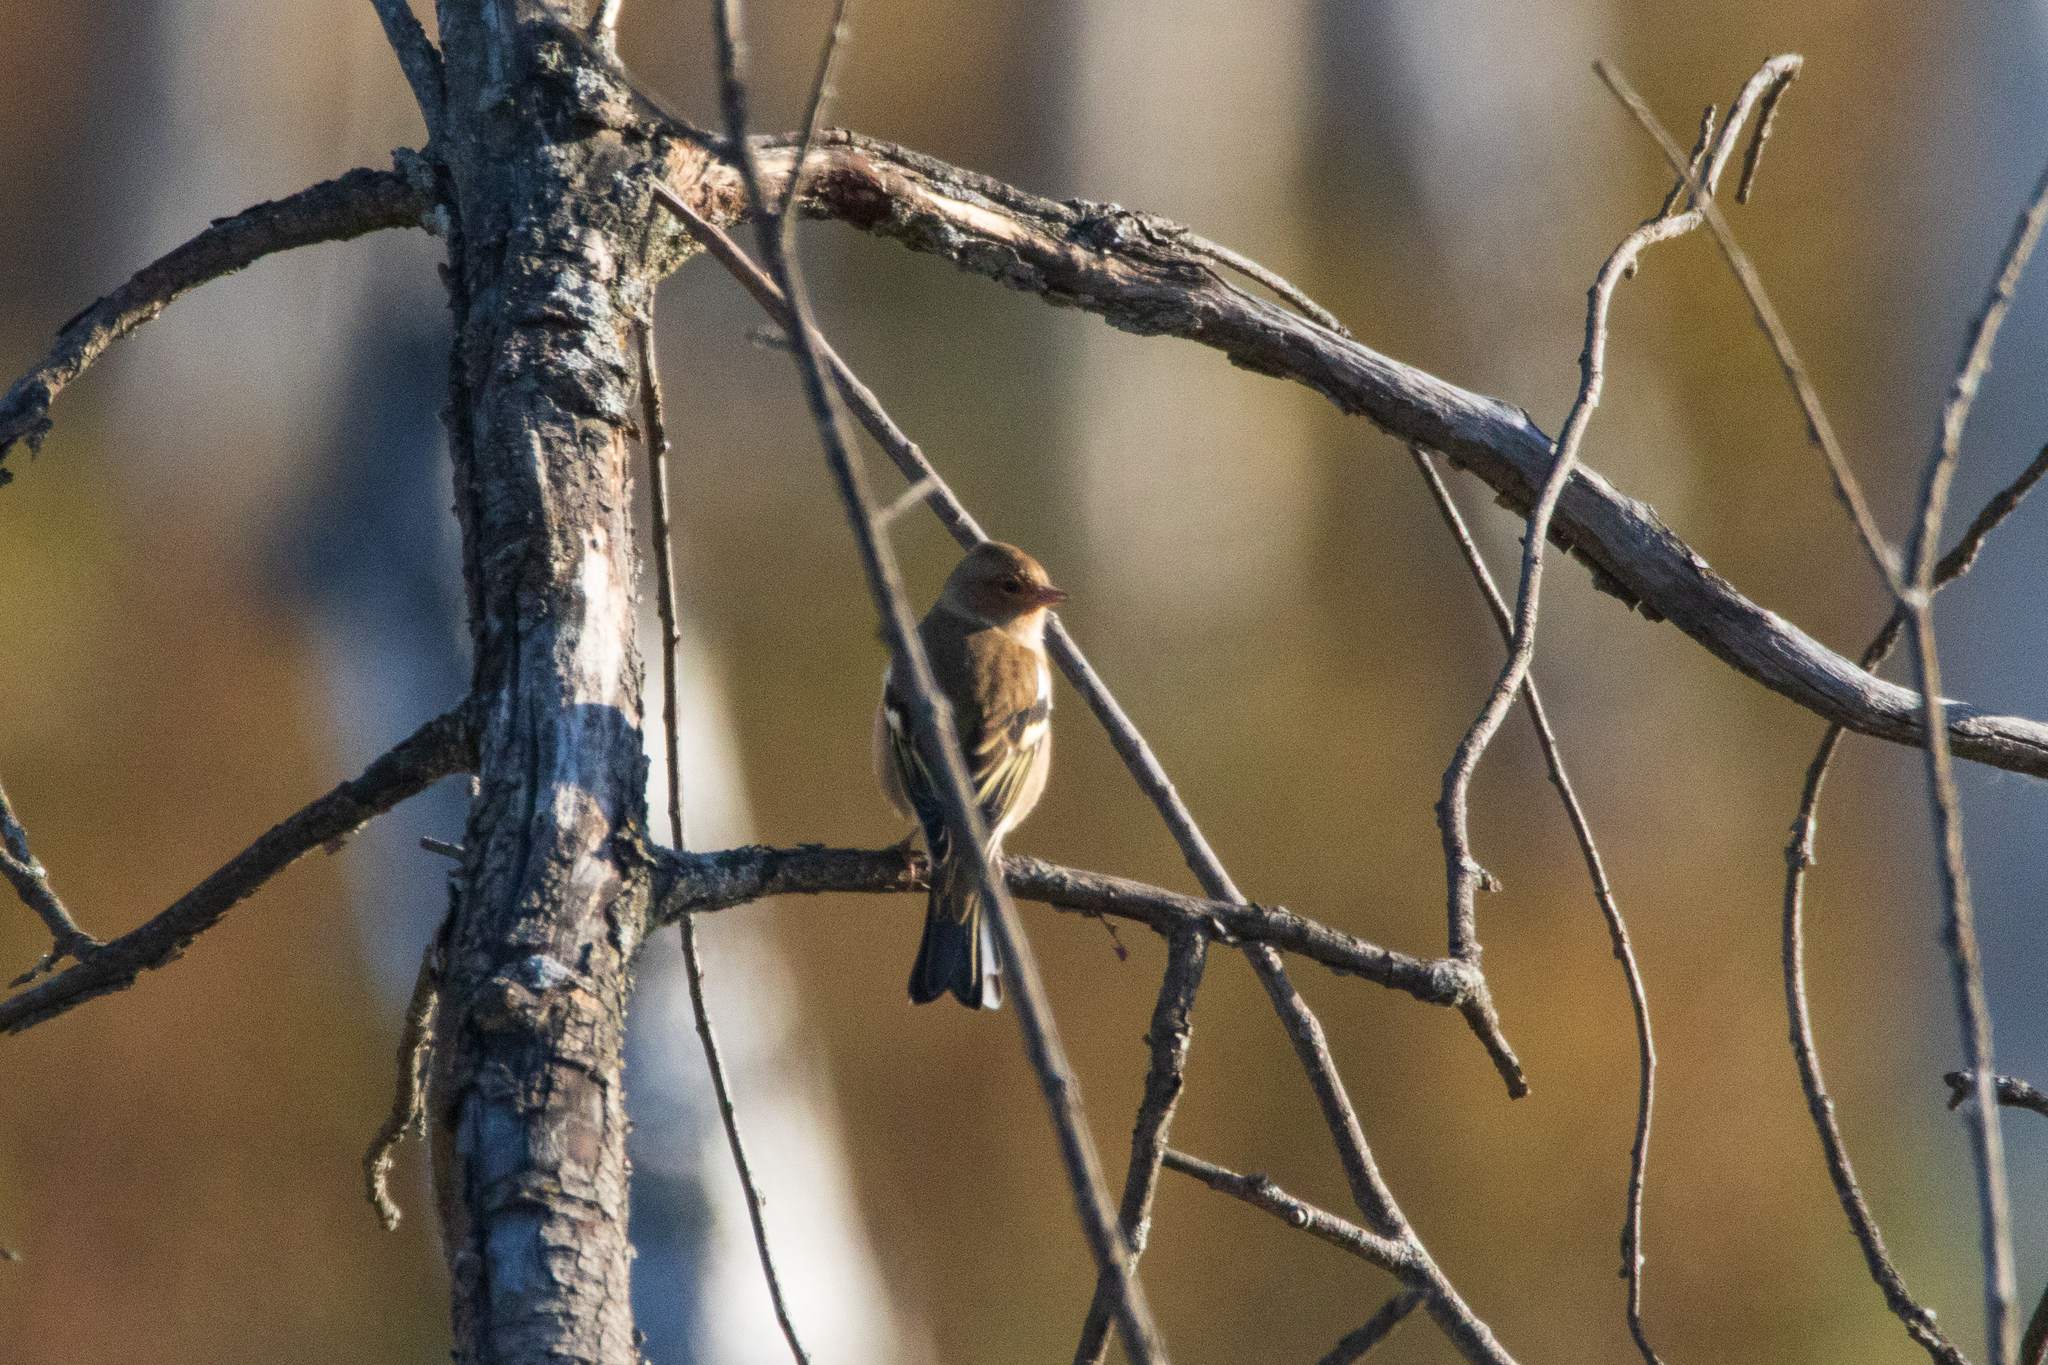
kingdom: Animalia
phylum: Chordata
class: Aves
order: Passeriformes
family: Fringillidae
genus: Fringilla
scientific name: Fringilla coelebs
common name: Common chaffinch
